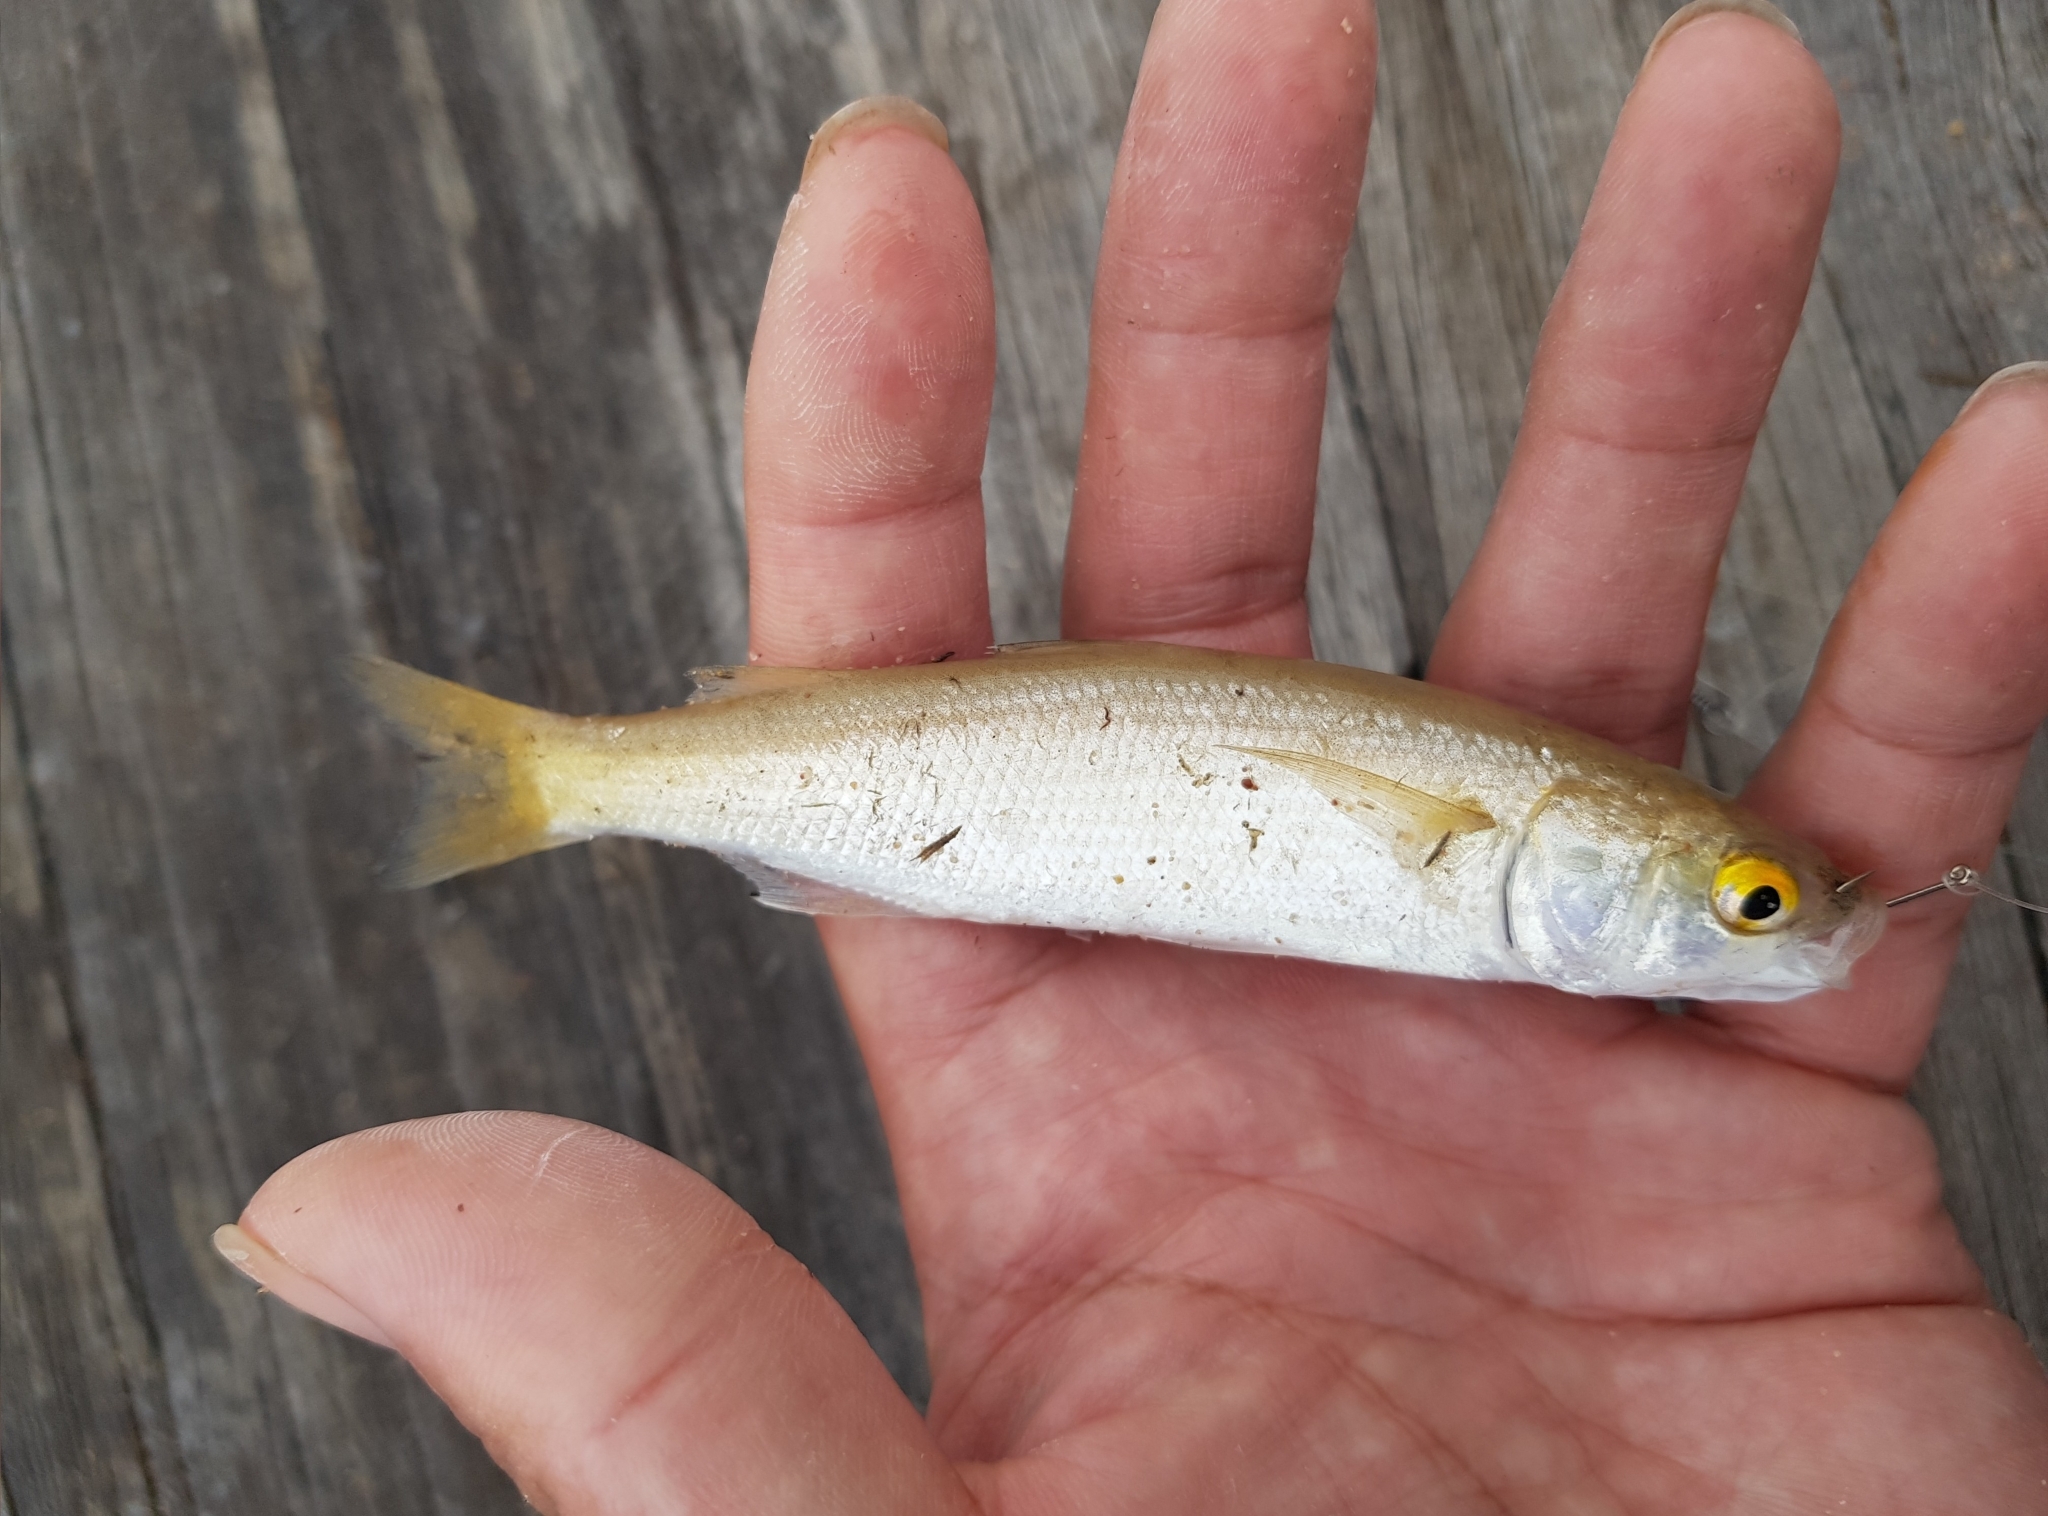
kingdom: Animalia
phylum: Chordata
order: Mugiliformes
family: Mugilidae
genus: Aldrichetta
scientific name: Aldrichetta forsteri
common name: Yellow-eye mullet
